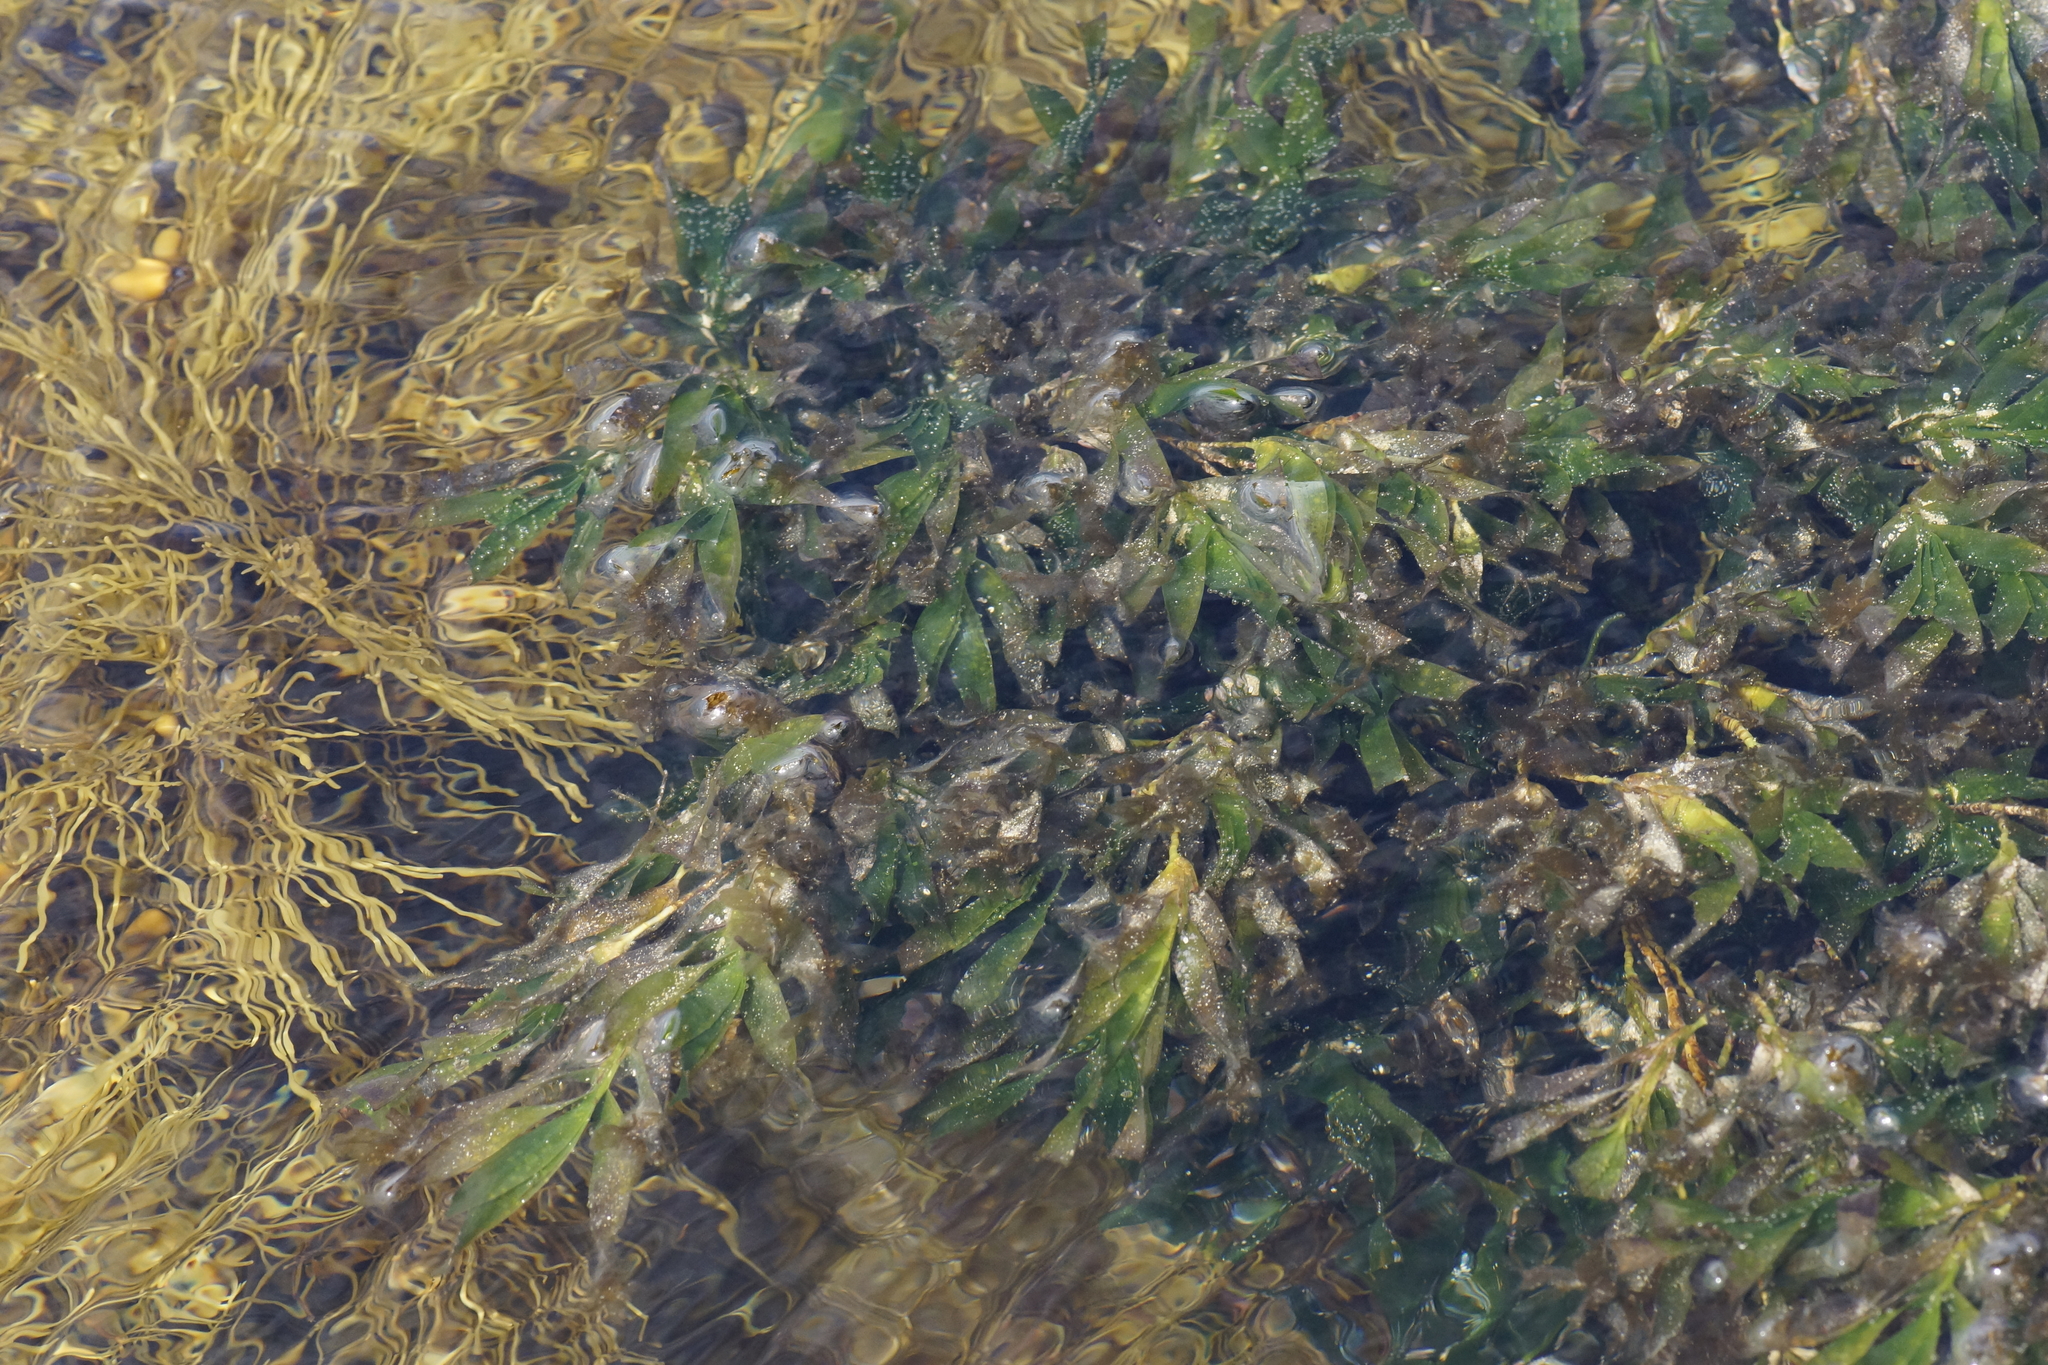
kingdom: Plantae
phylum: Tracheophyta
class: Liliopsida
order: Alismatales
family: Cymodoceaceae
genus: Amphibolis
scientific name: Amphibolis antarctica
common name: Species code: aa
